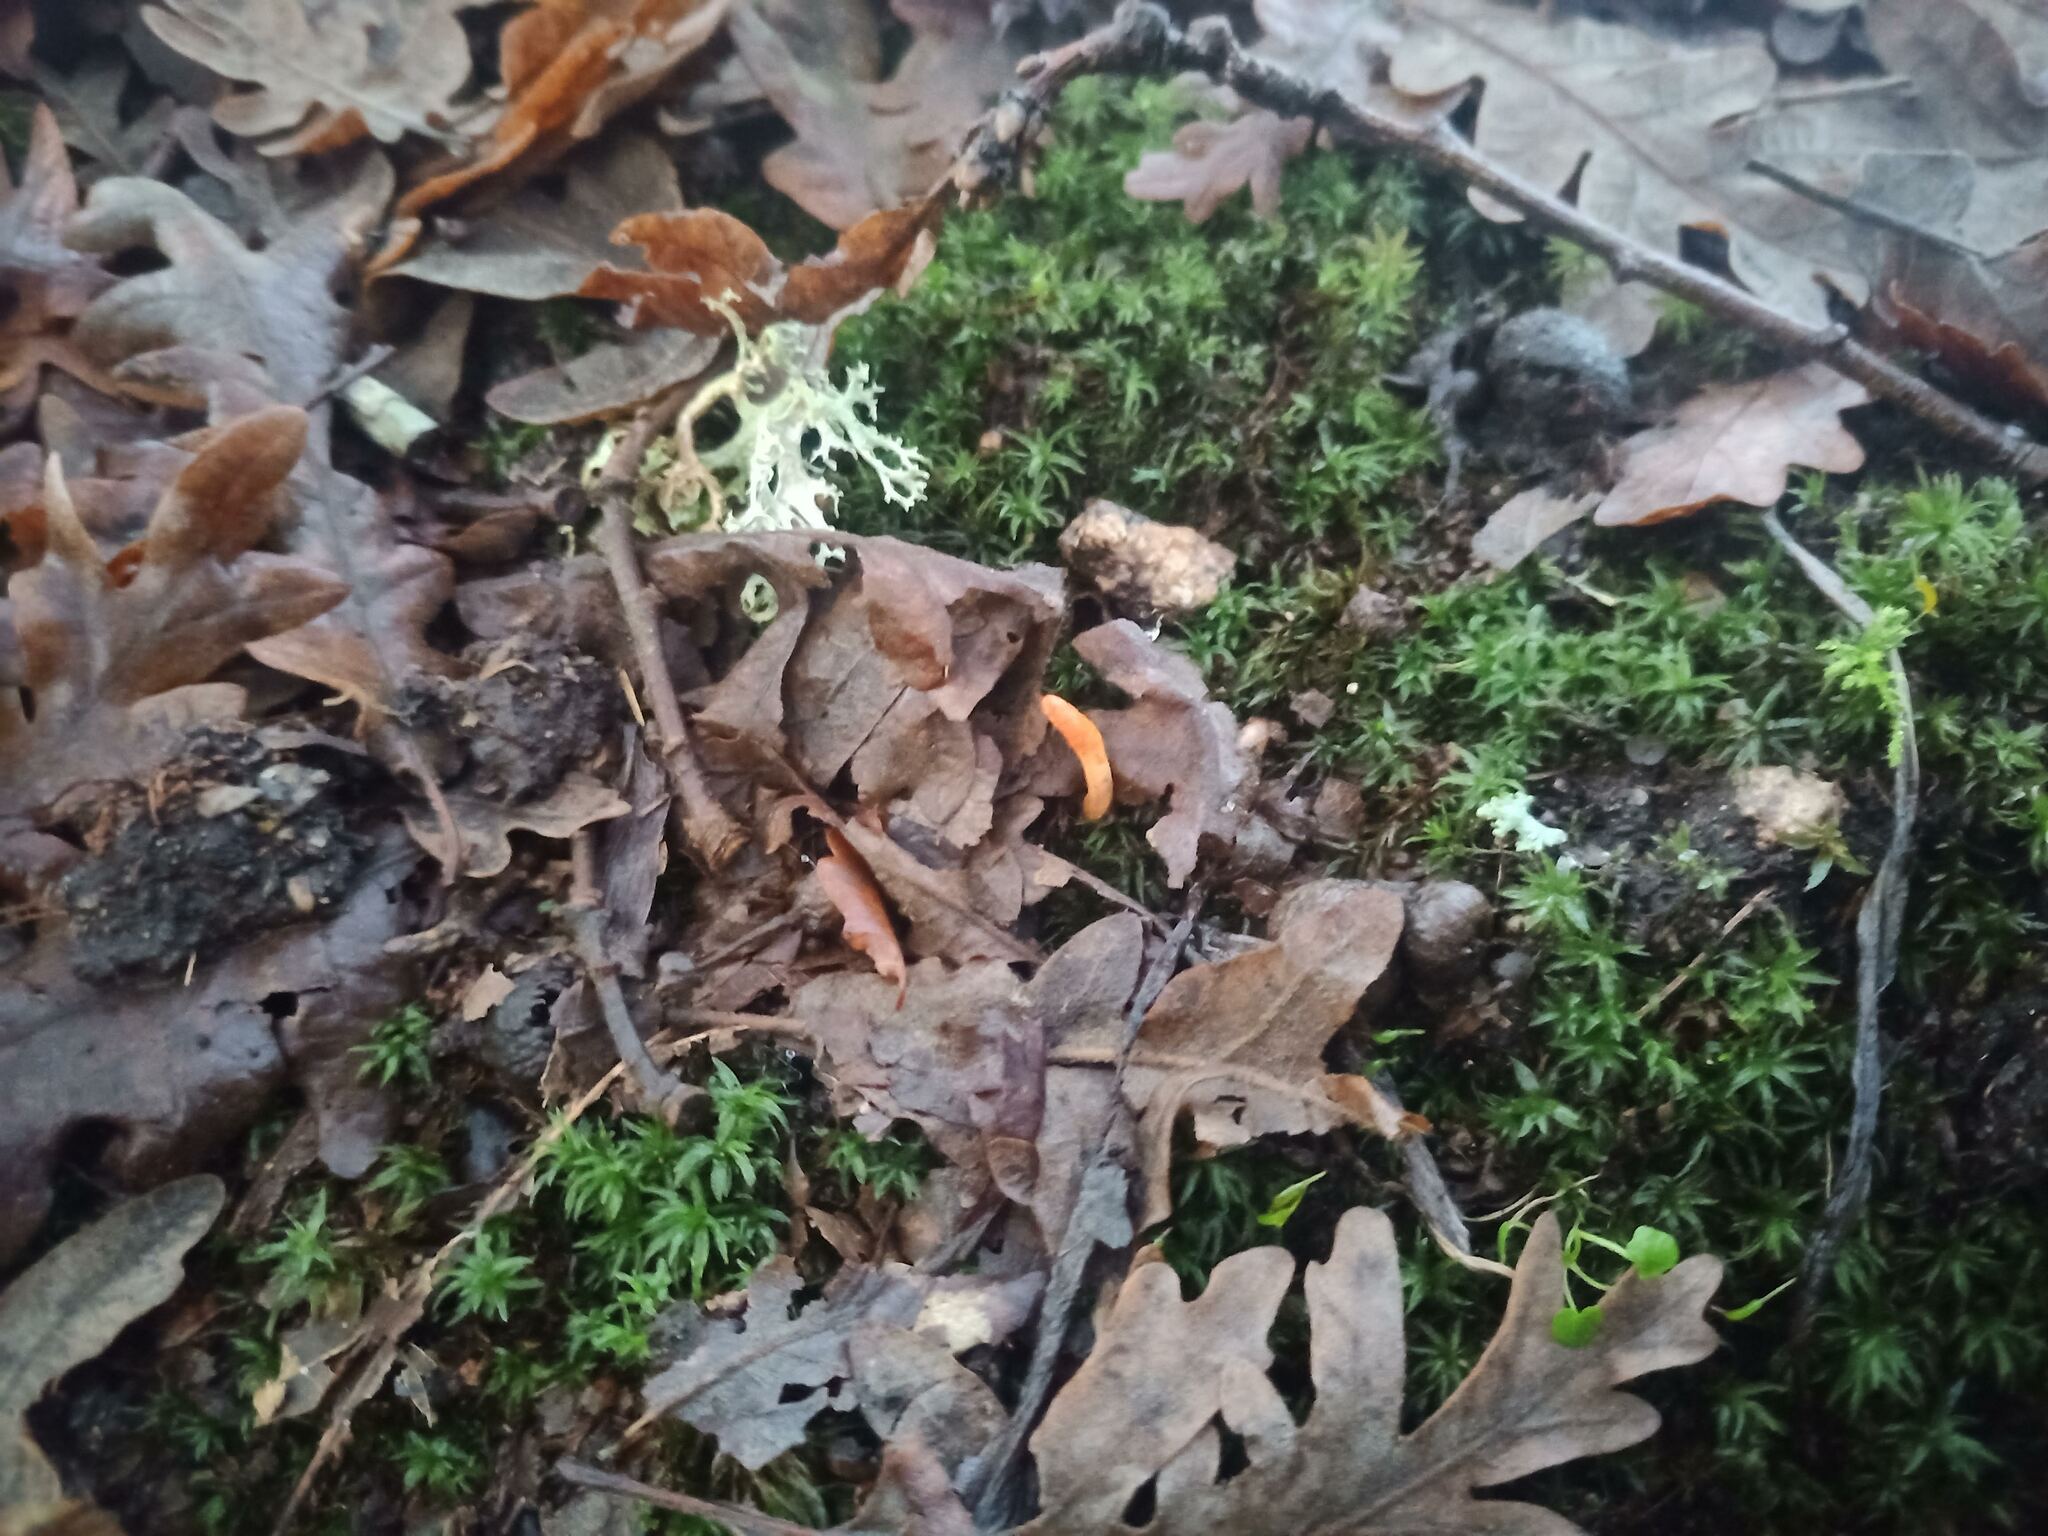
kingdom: Fungi
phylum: Ascomycota
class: Sordariomycetes
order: Hypocreales
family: Cordycipitaceae
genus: Cordyceps
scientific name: Cordyceps militaris
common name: Scarlet caterpillar fungus
